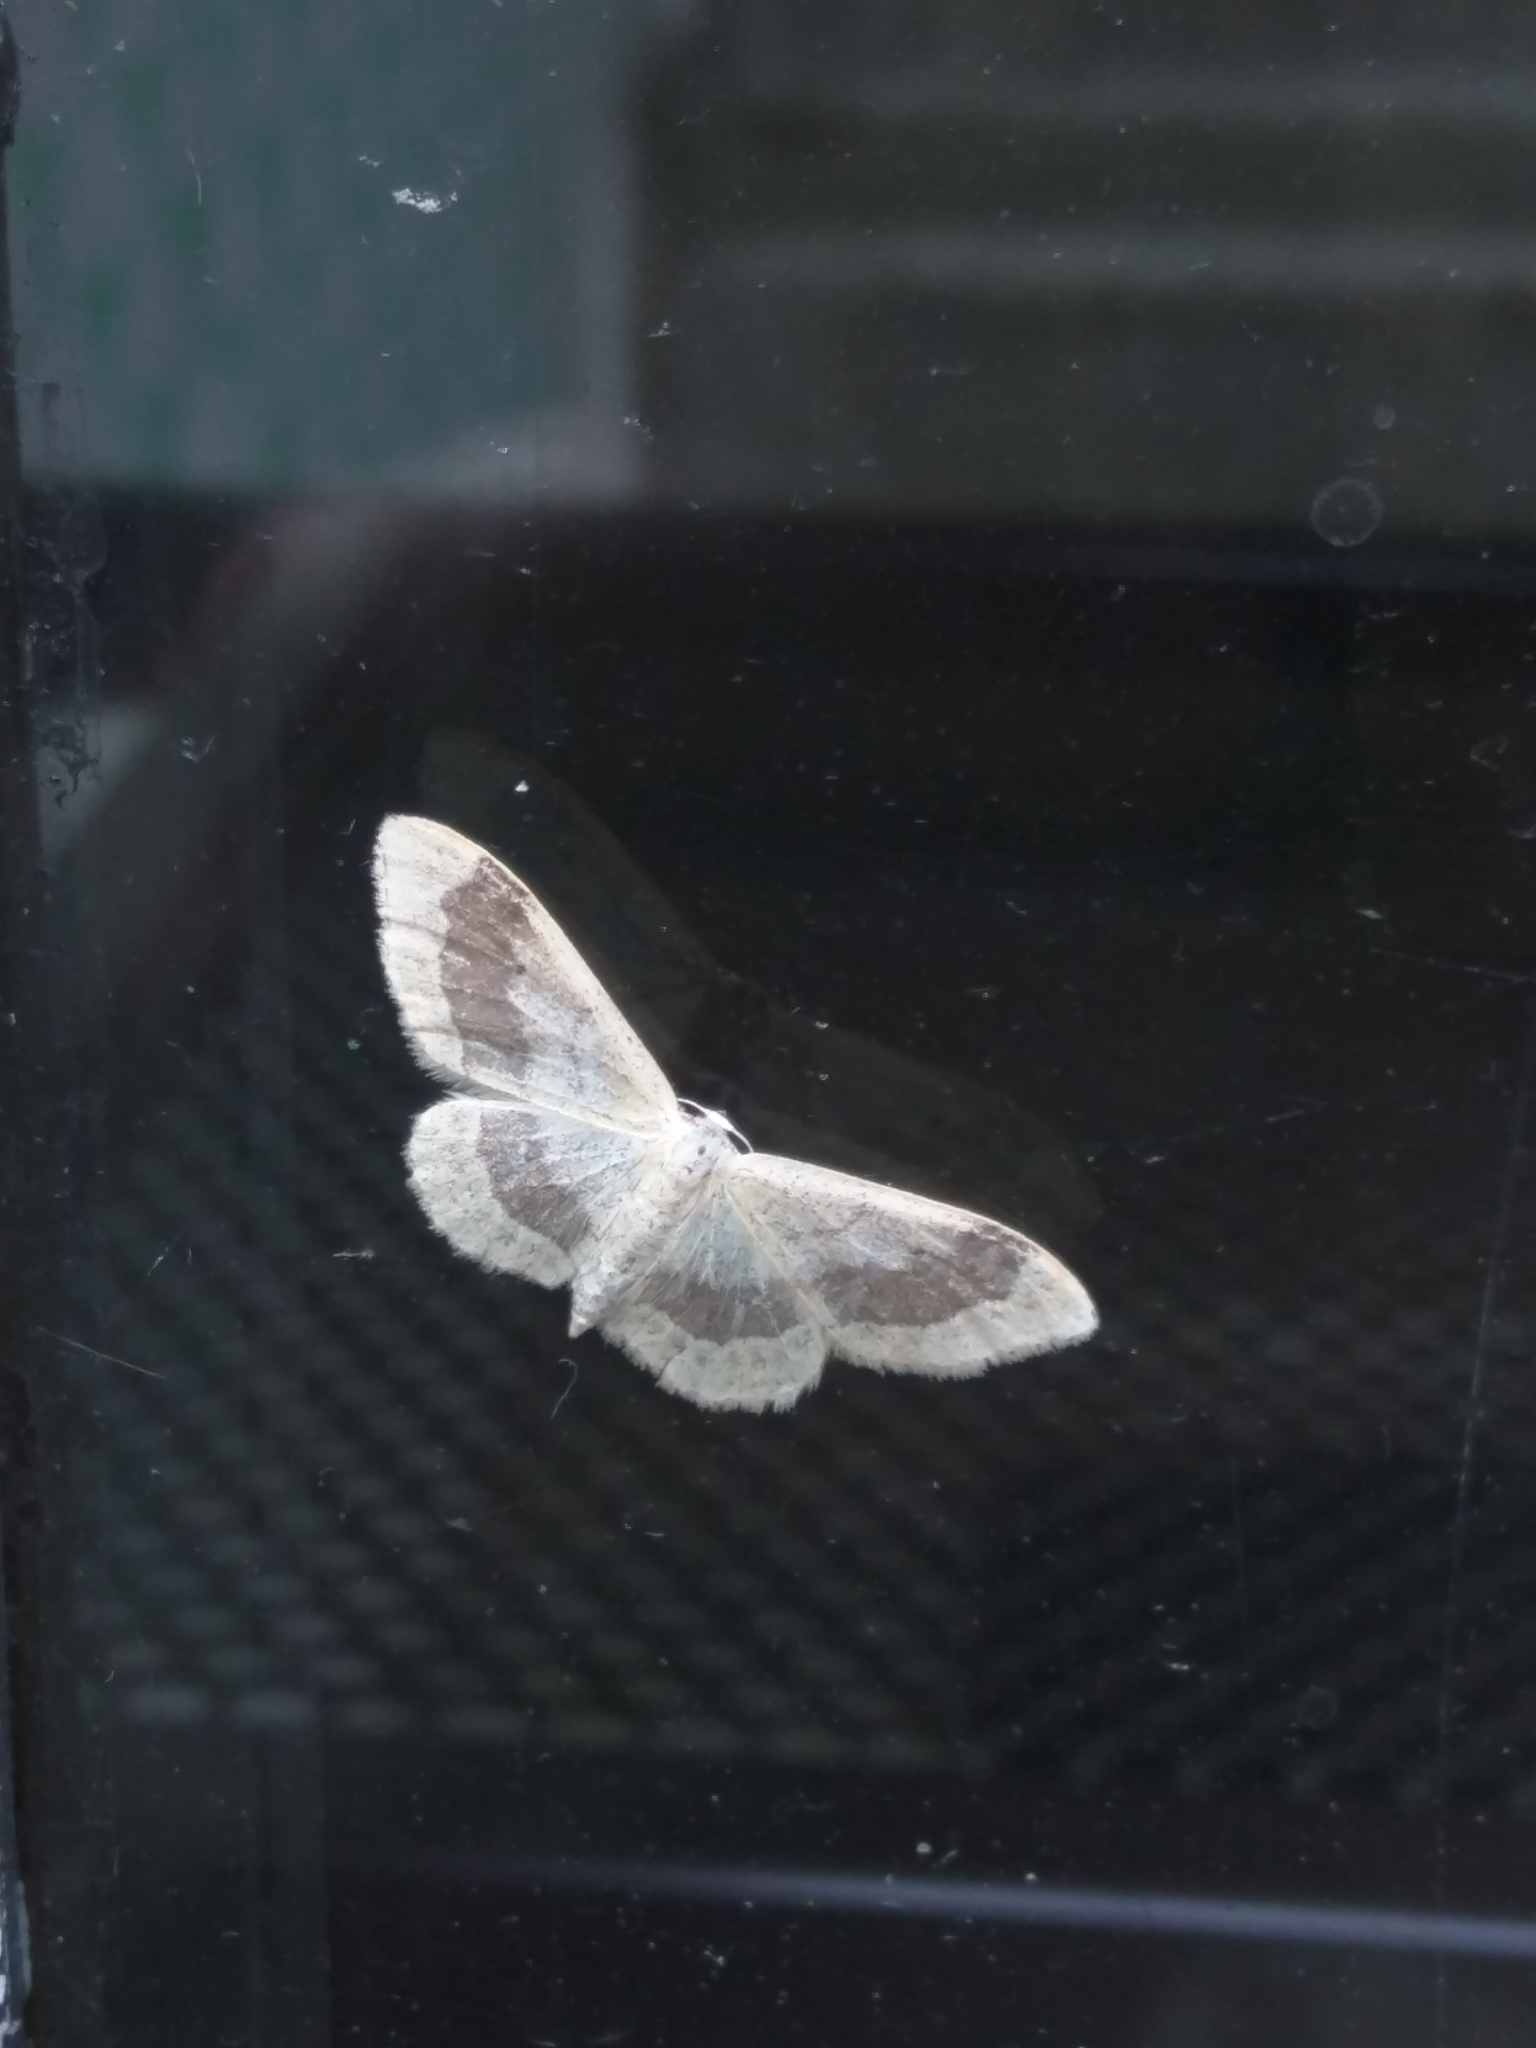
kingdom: Animalia
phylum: Arthropoda
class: Insecta
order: Lepidoptera
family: Geometridae
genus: Idaea
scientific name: Idaea aversata
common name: Riband wave
